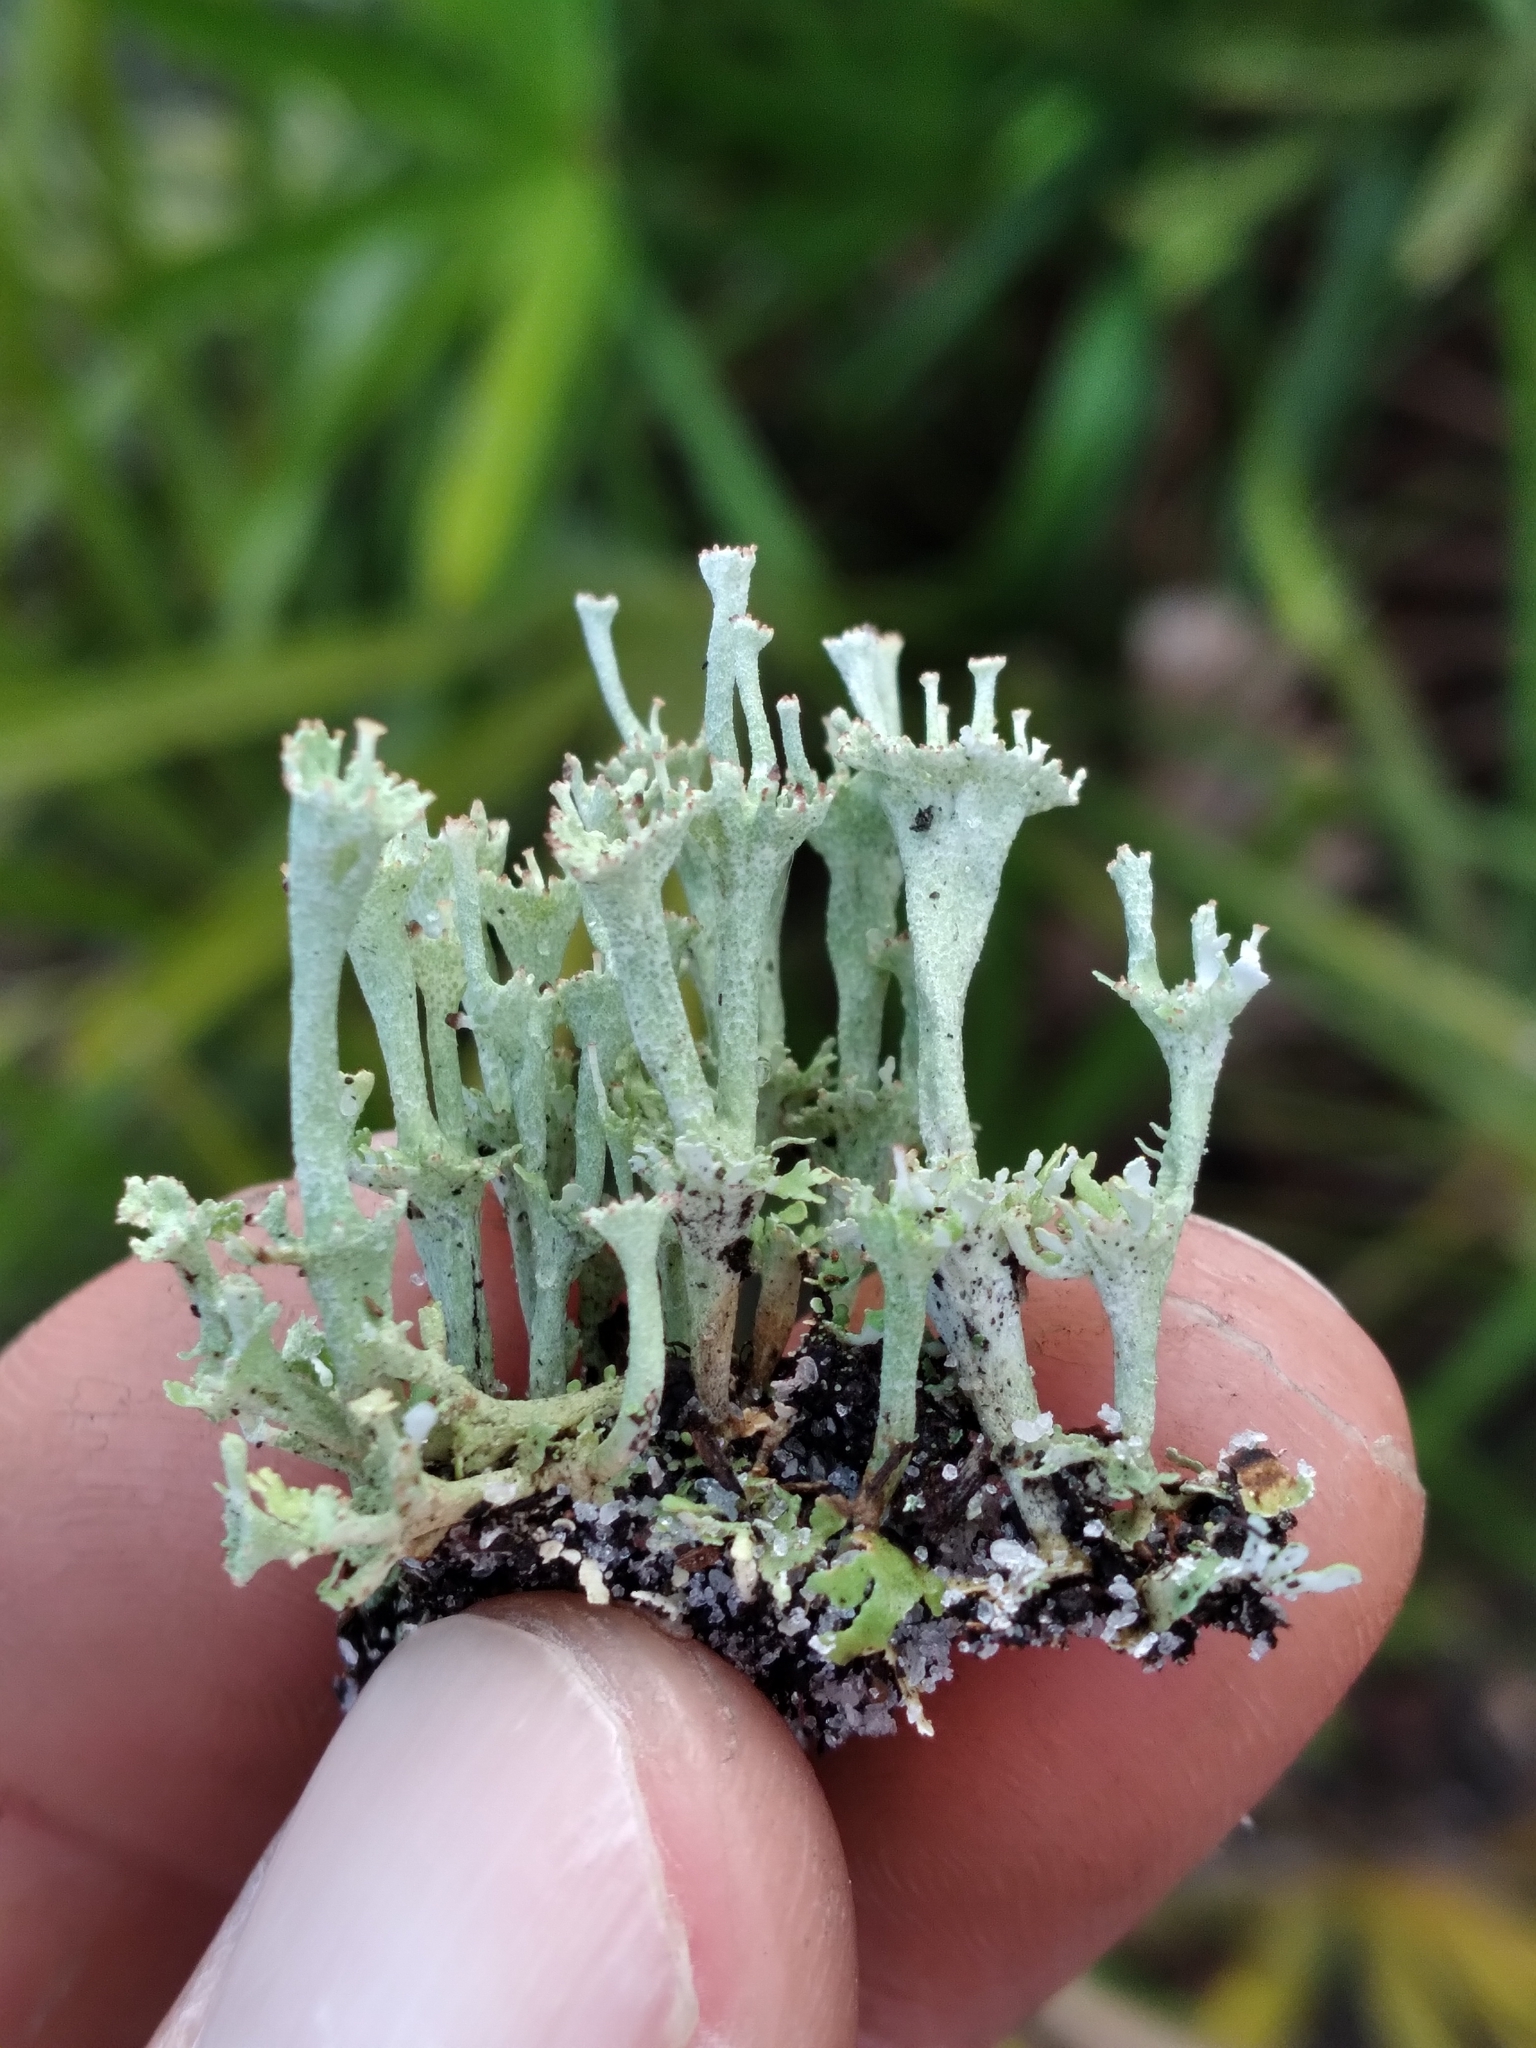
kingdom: Fungi
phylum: Ascomycota
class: Lecanoromycetes
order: Lecanorales
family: Cladoniaceae
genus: Cladonia
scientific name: Cladonia rappii
